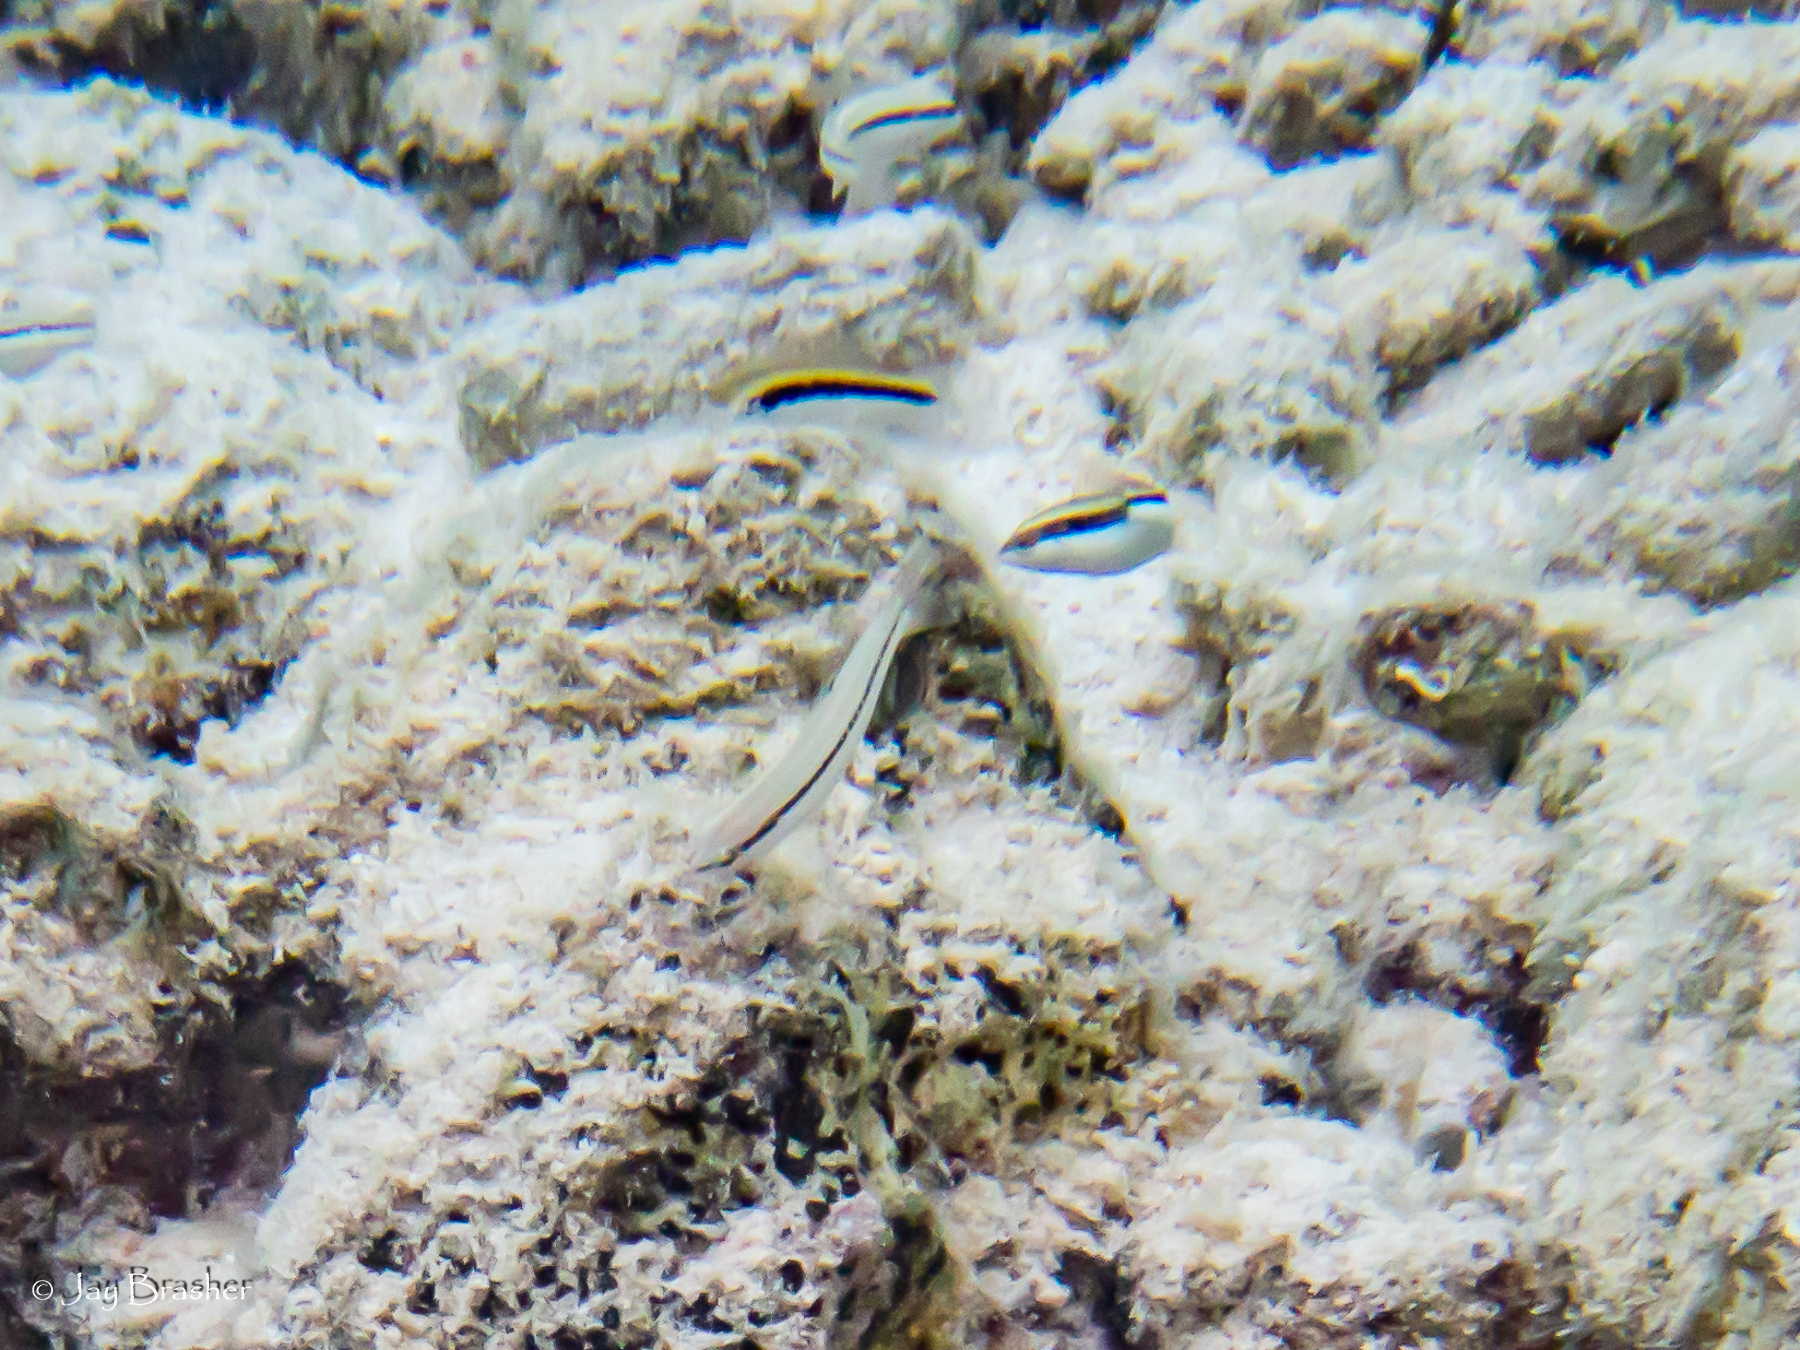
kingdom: Animalia
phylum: Chordata
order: Perciformes
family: Labridae
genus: Halichoeres
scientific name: Halichoeres bivittatus
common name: Slippery dick
